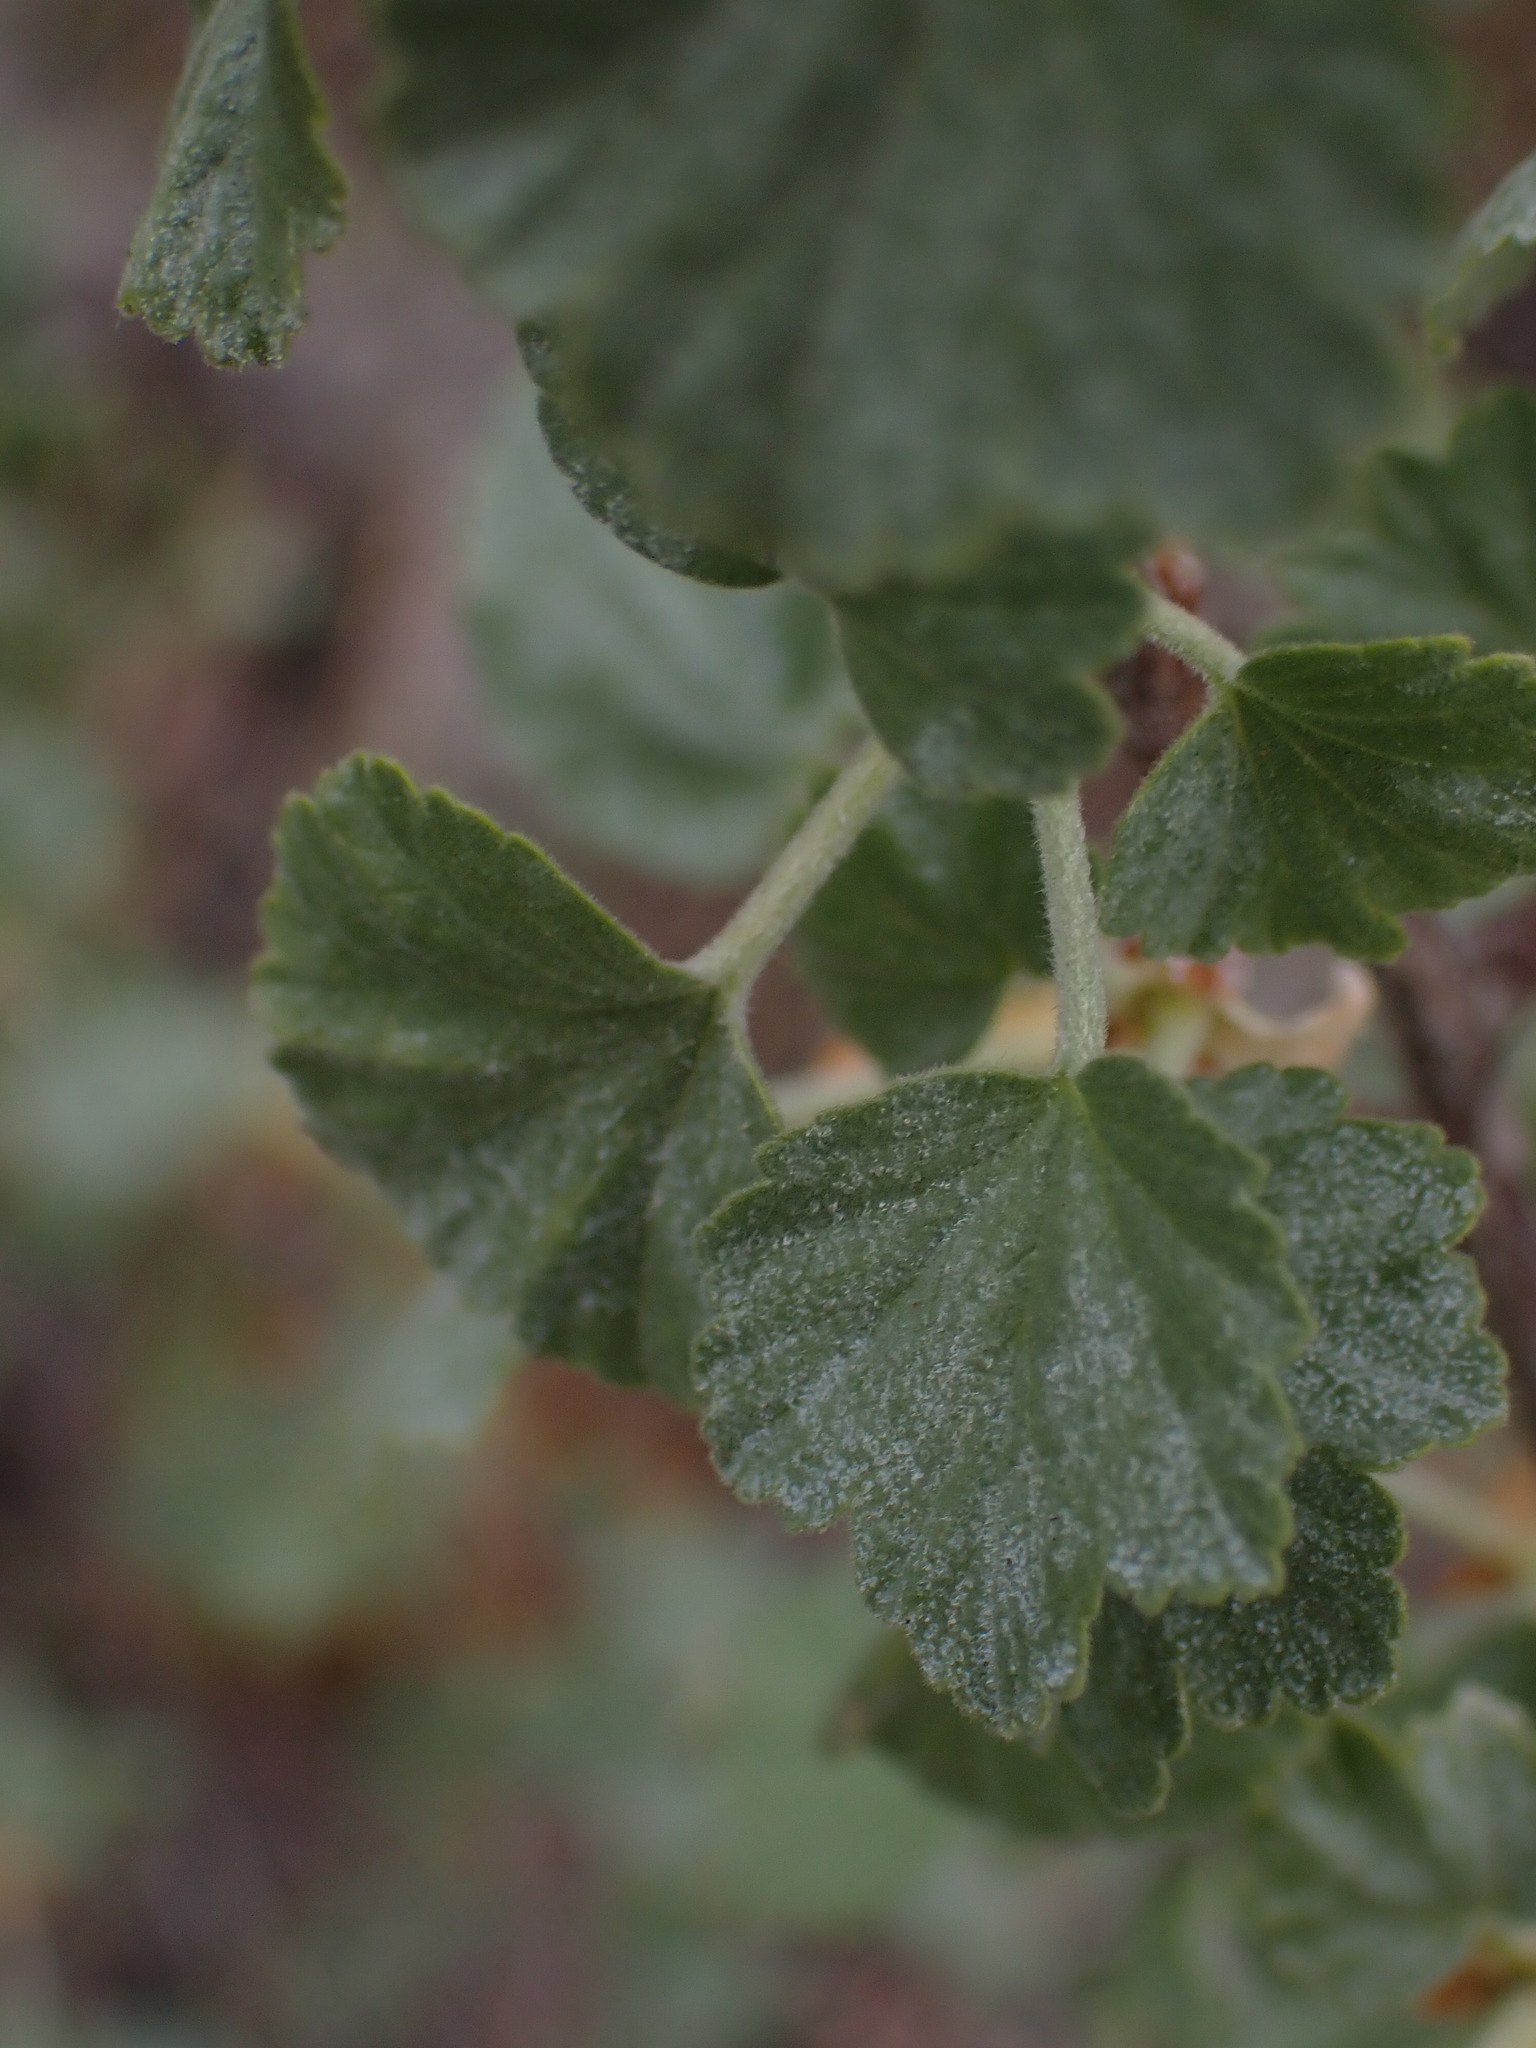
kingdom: Plantae
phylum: Tracheophyta
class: Magnoliopsida
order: Saxifragales
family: Grossulariaceae
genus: Ribes
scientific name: Ribes cereum
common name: Wax currant
